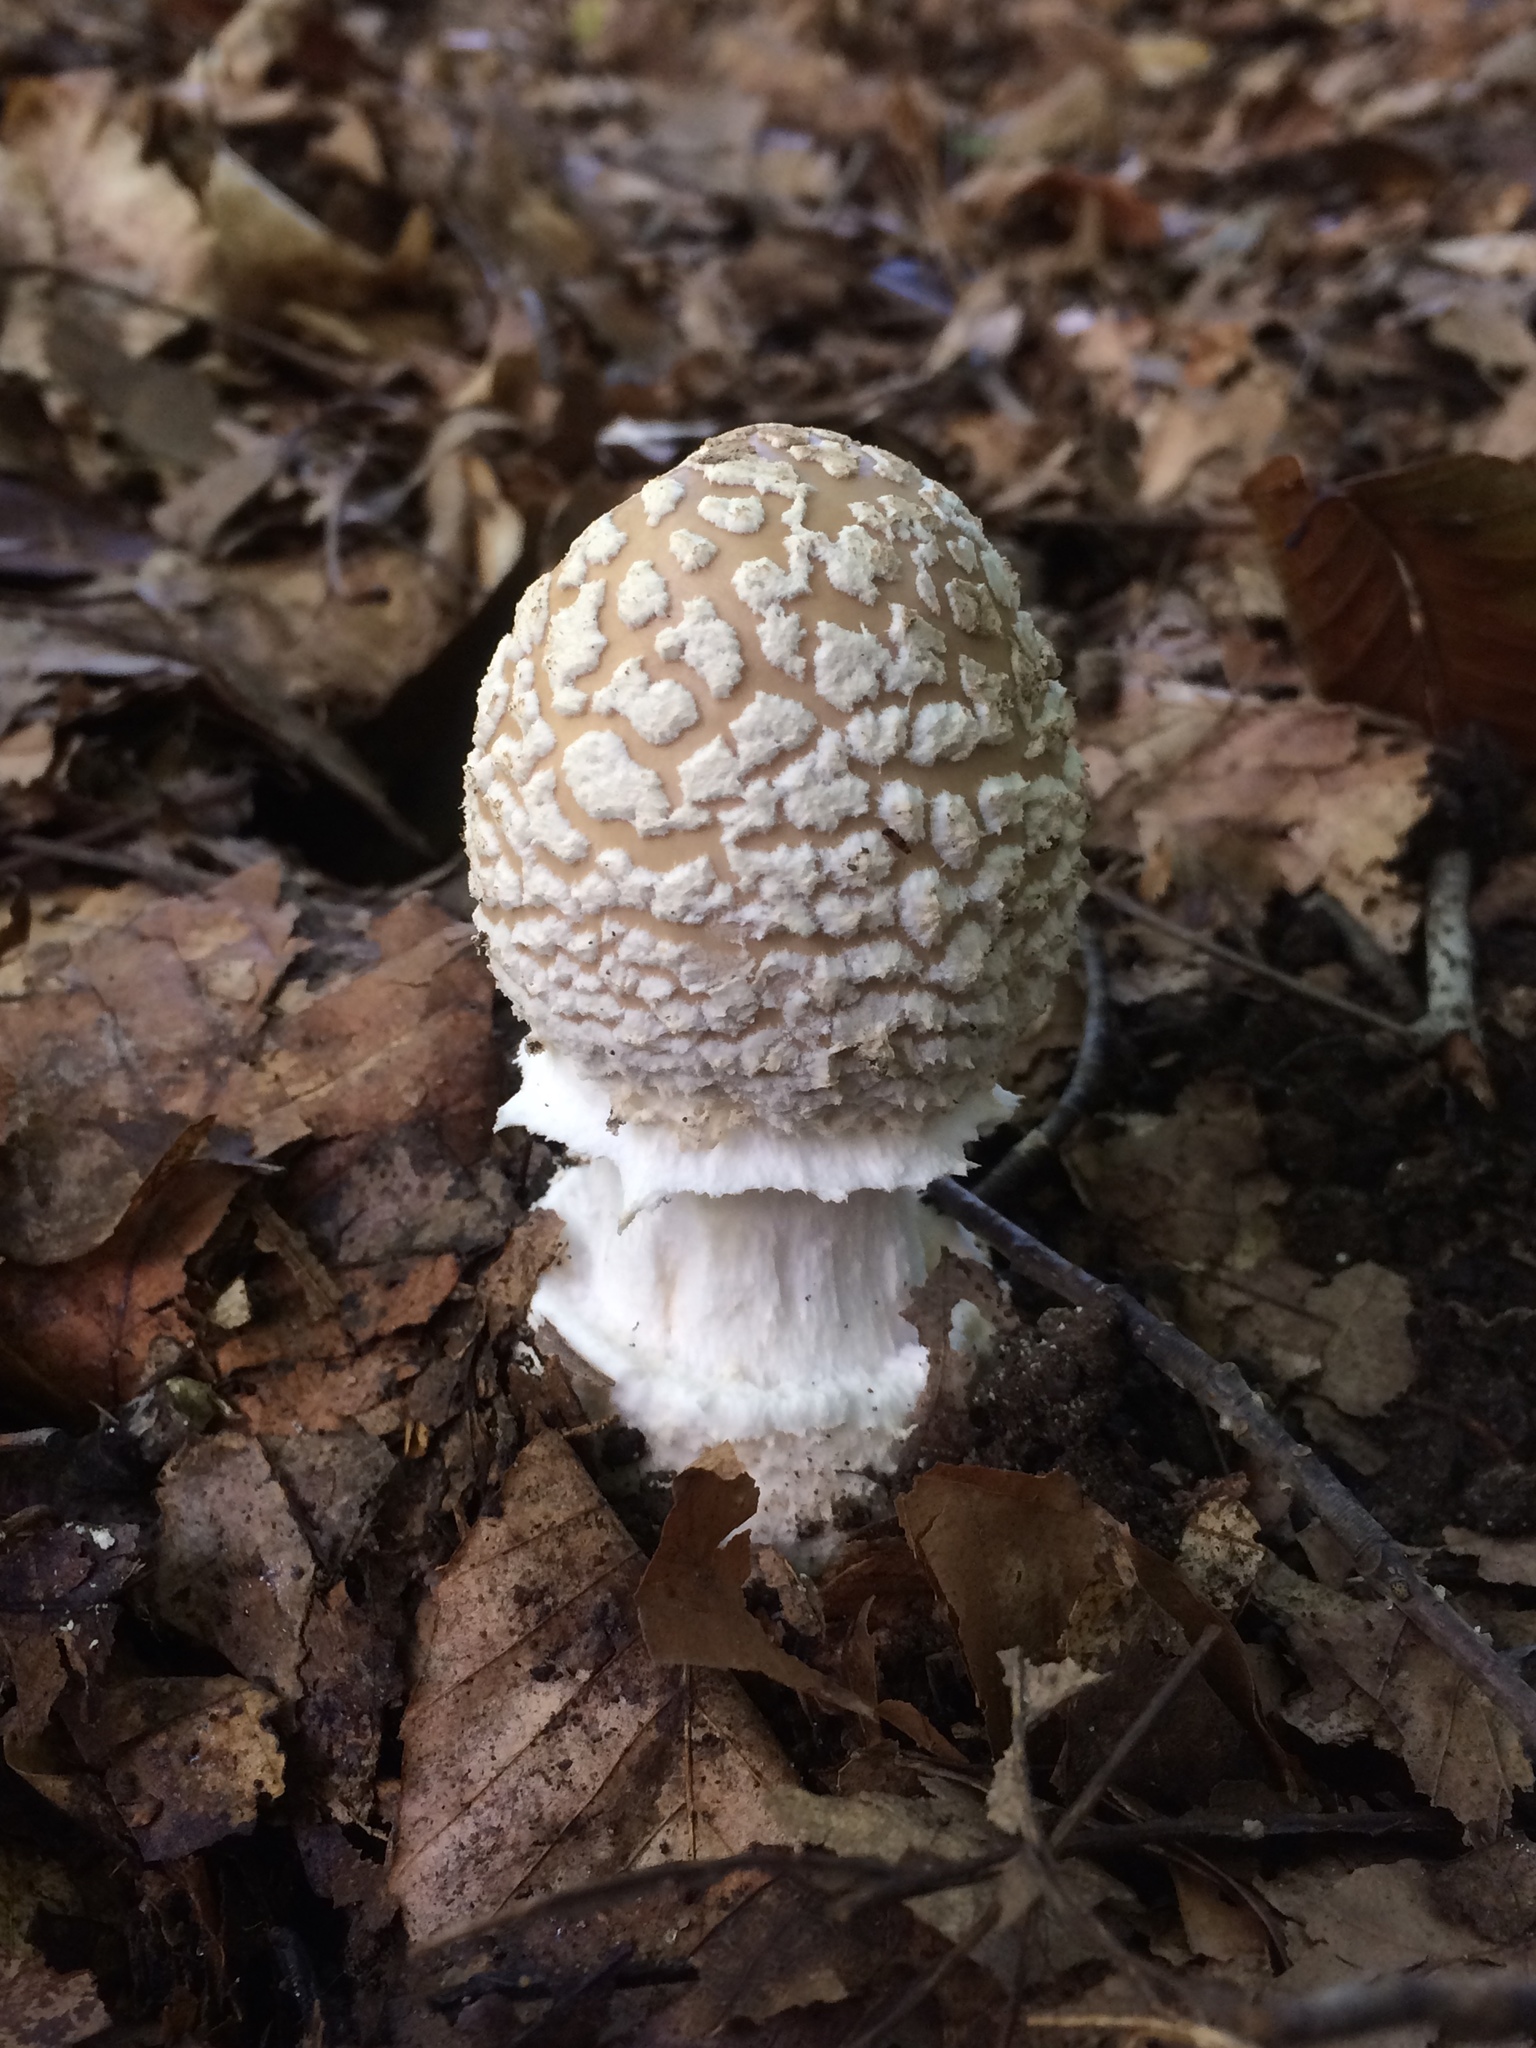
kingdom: Fungi
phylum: Basidiomycota
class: Agaricomycetes
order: Agaricales
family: Amanitaceae
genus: Amanita
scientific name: Amanita multisquamosa
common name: Small funnel-veil amanita
